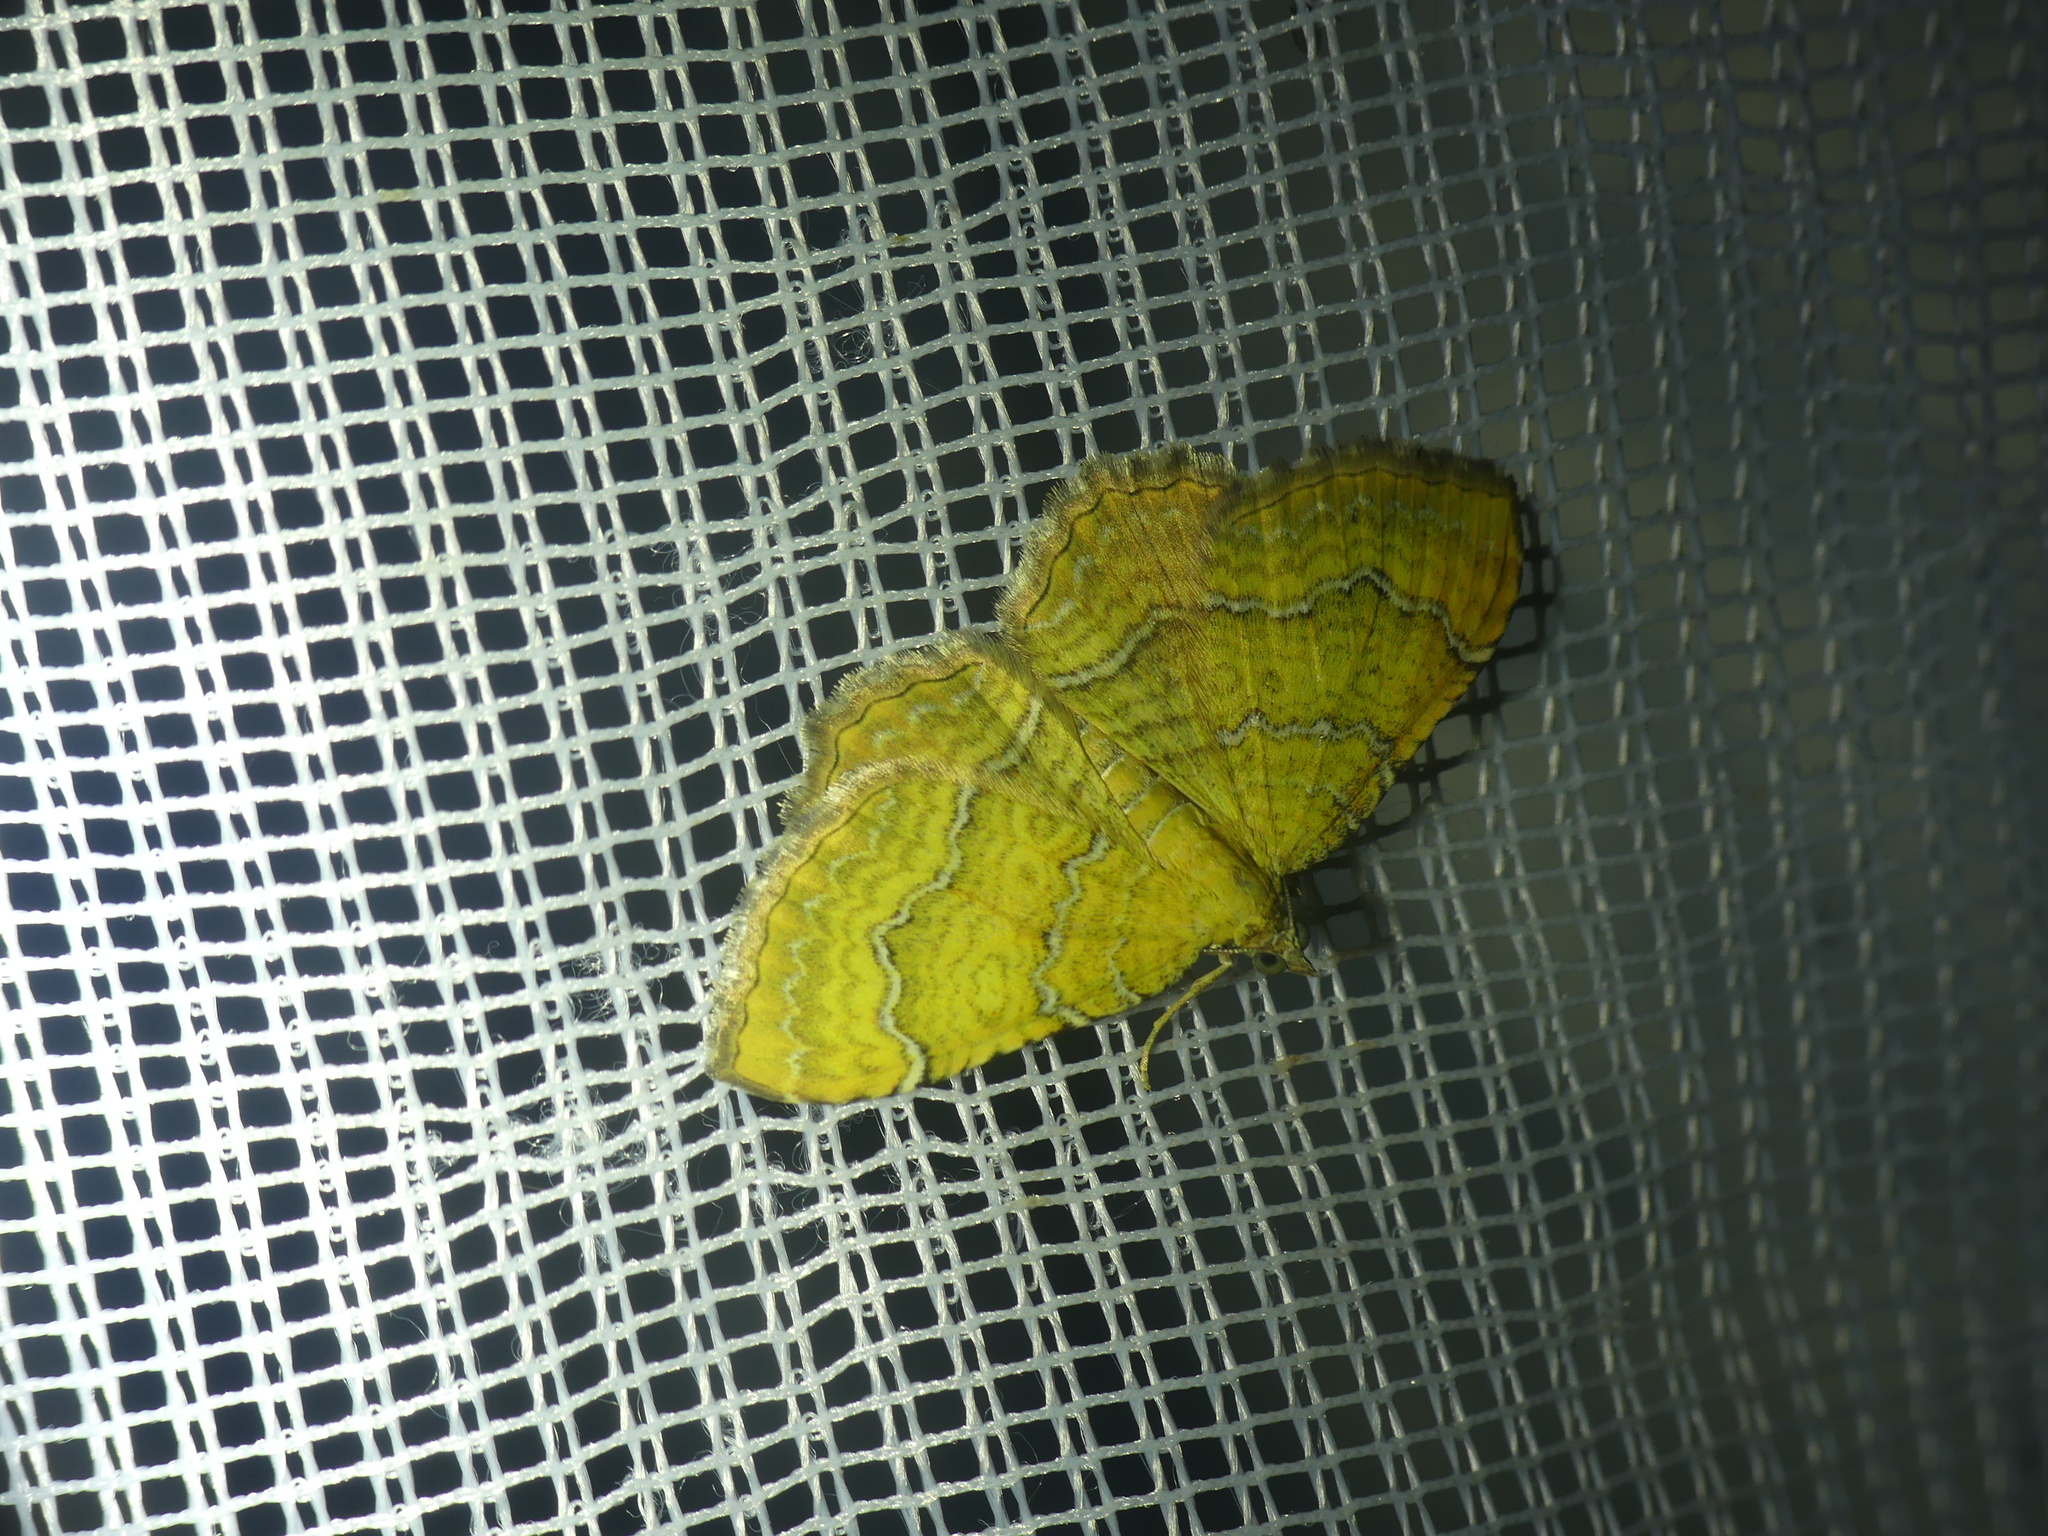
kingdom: Animalia
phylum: Arthropoda
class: Insecta
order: Lepidoptera
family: Geometridae
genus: Camptogramma
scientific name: Camptogramma bilineata
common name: Yellow shell
